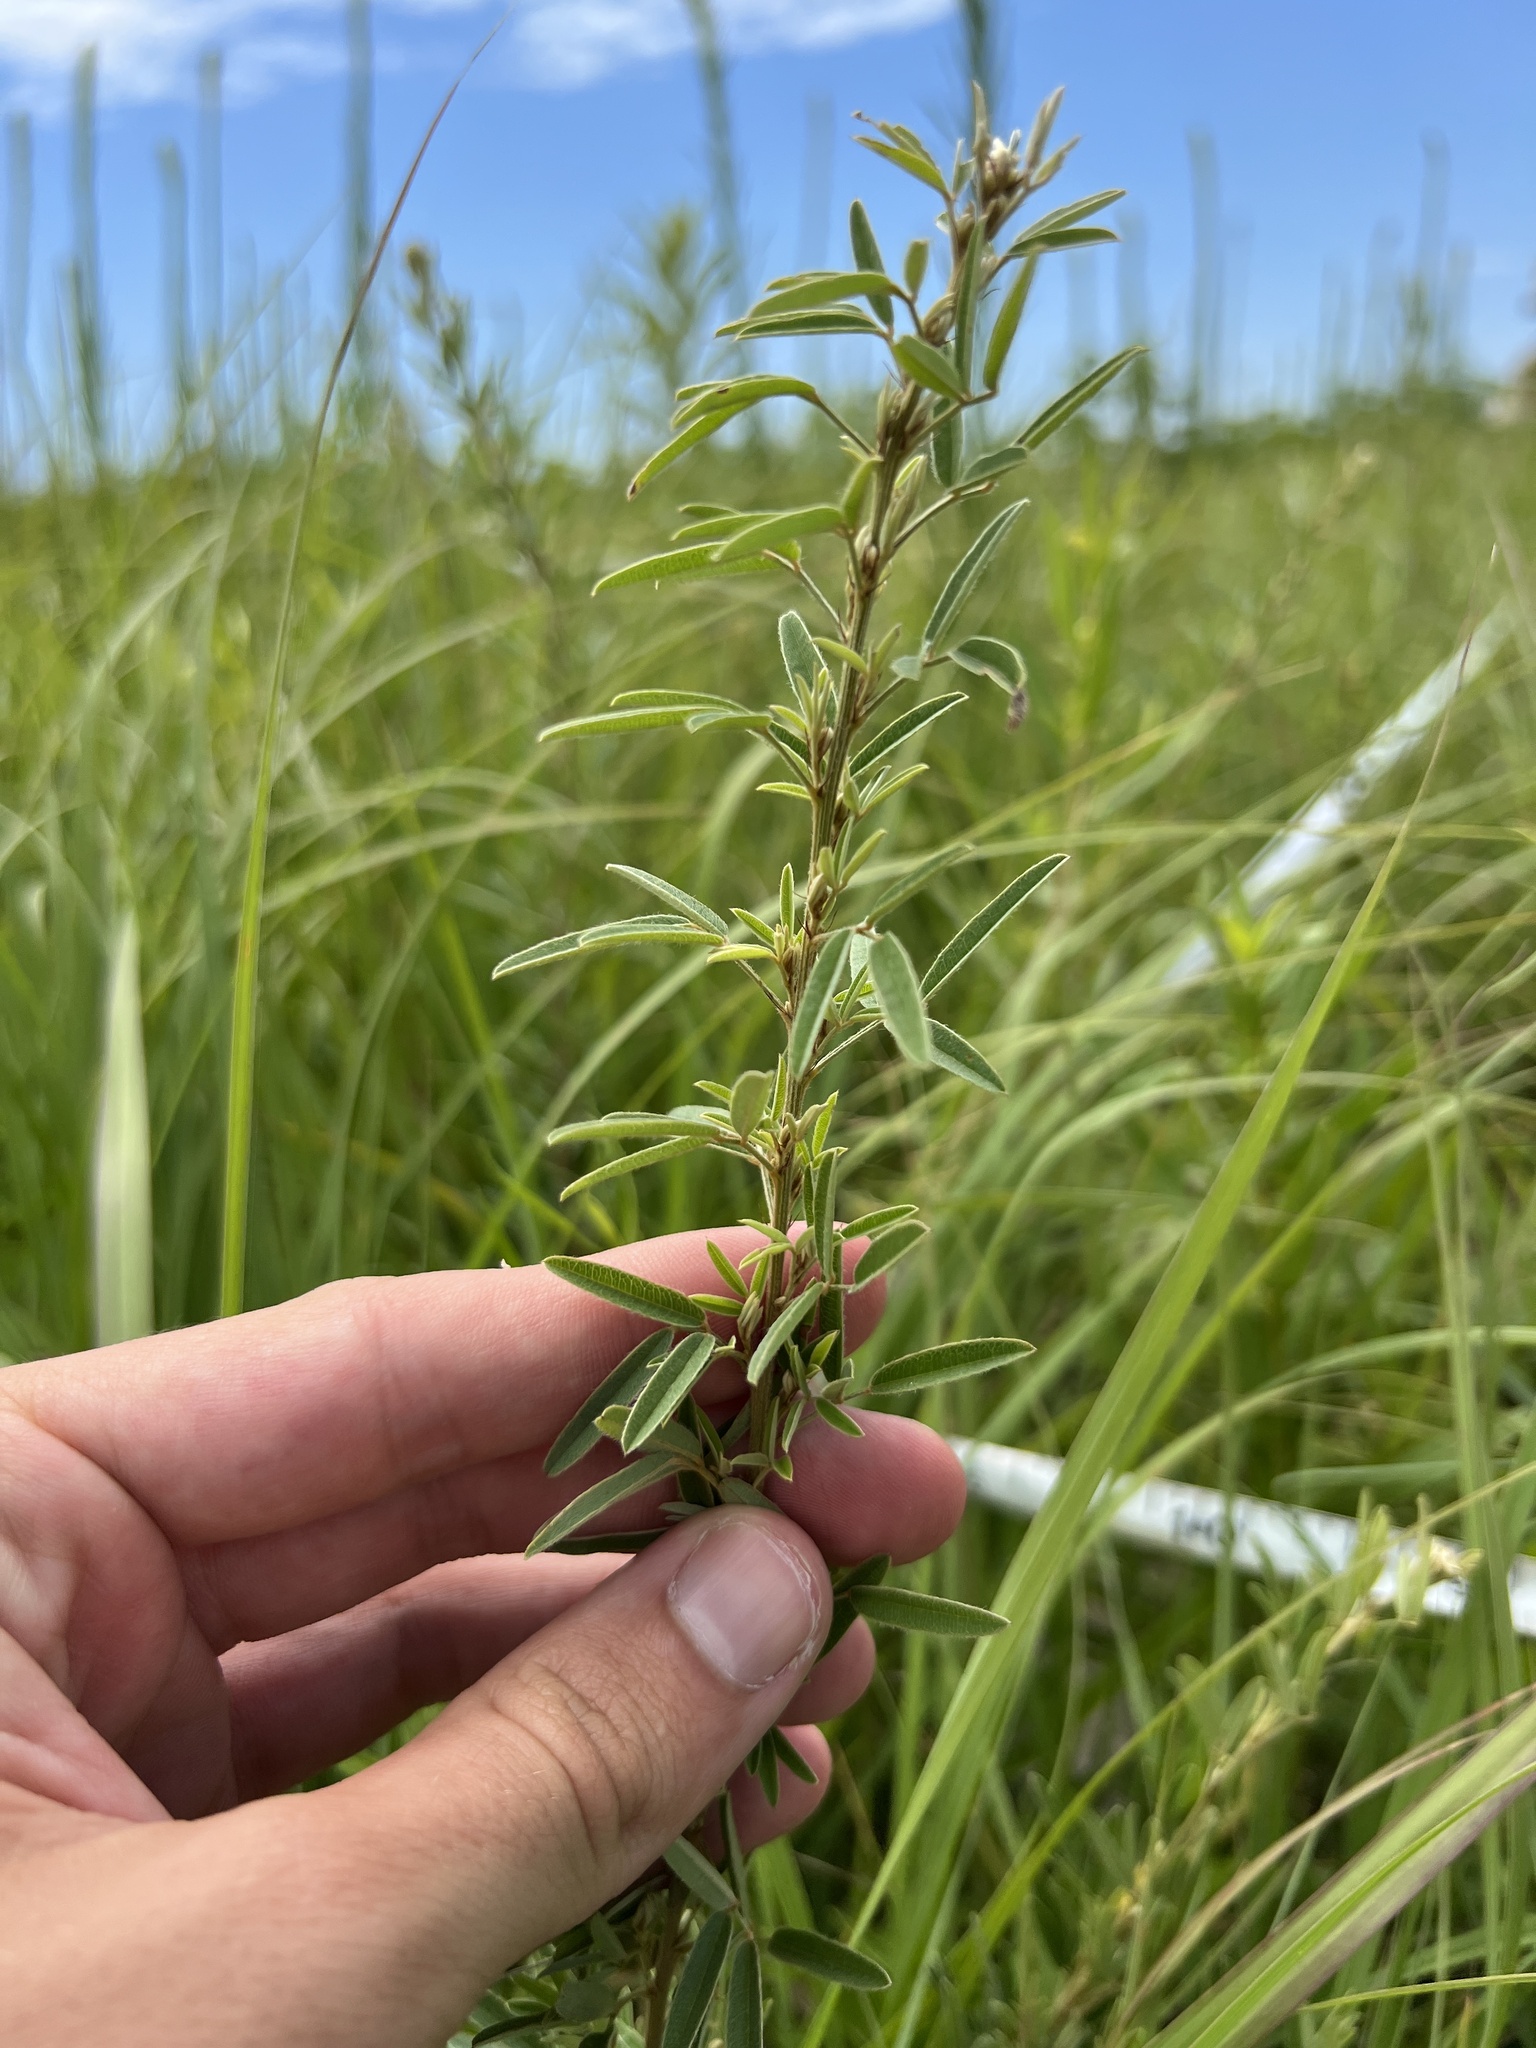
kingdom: Plantae
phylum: Tracheophyta
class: Magnoliopsida
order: Fabales
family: Fabaceae
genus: Lespedeza
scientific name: Lespedeza virginica
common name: Slender bush-clover
